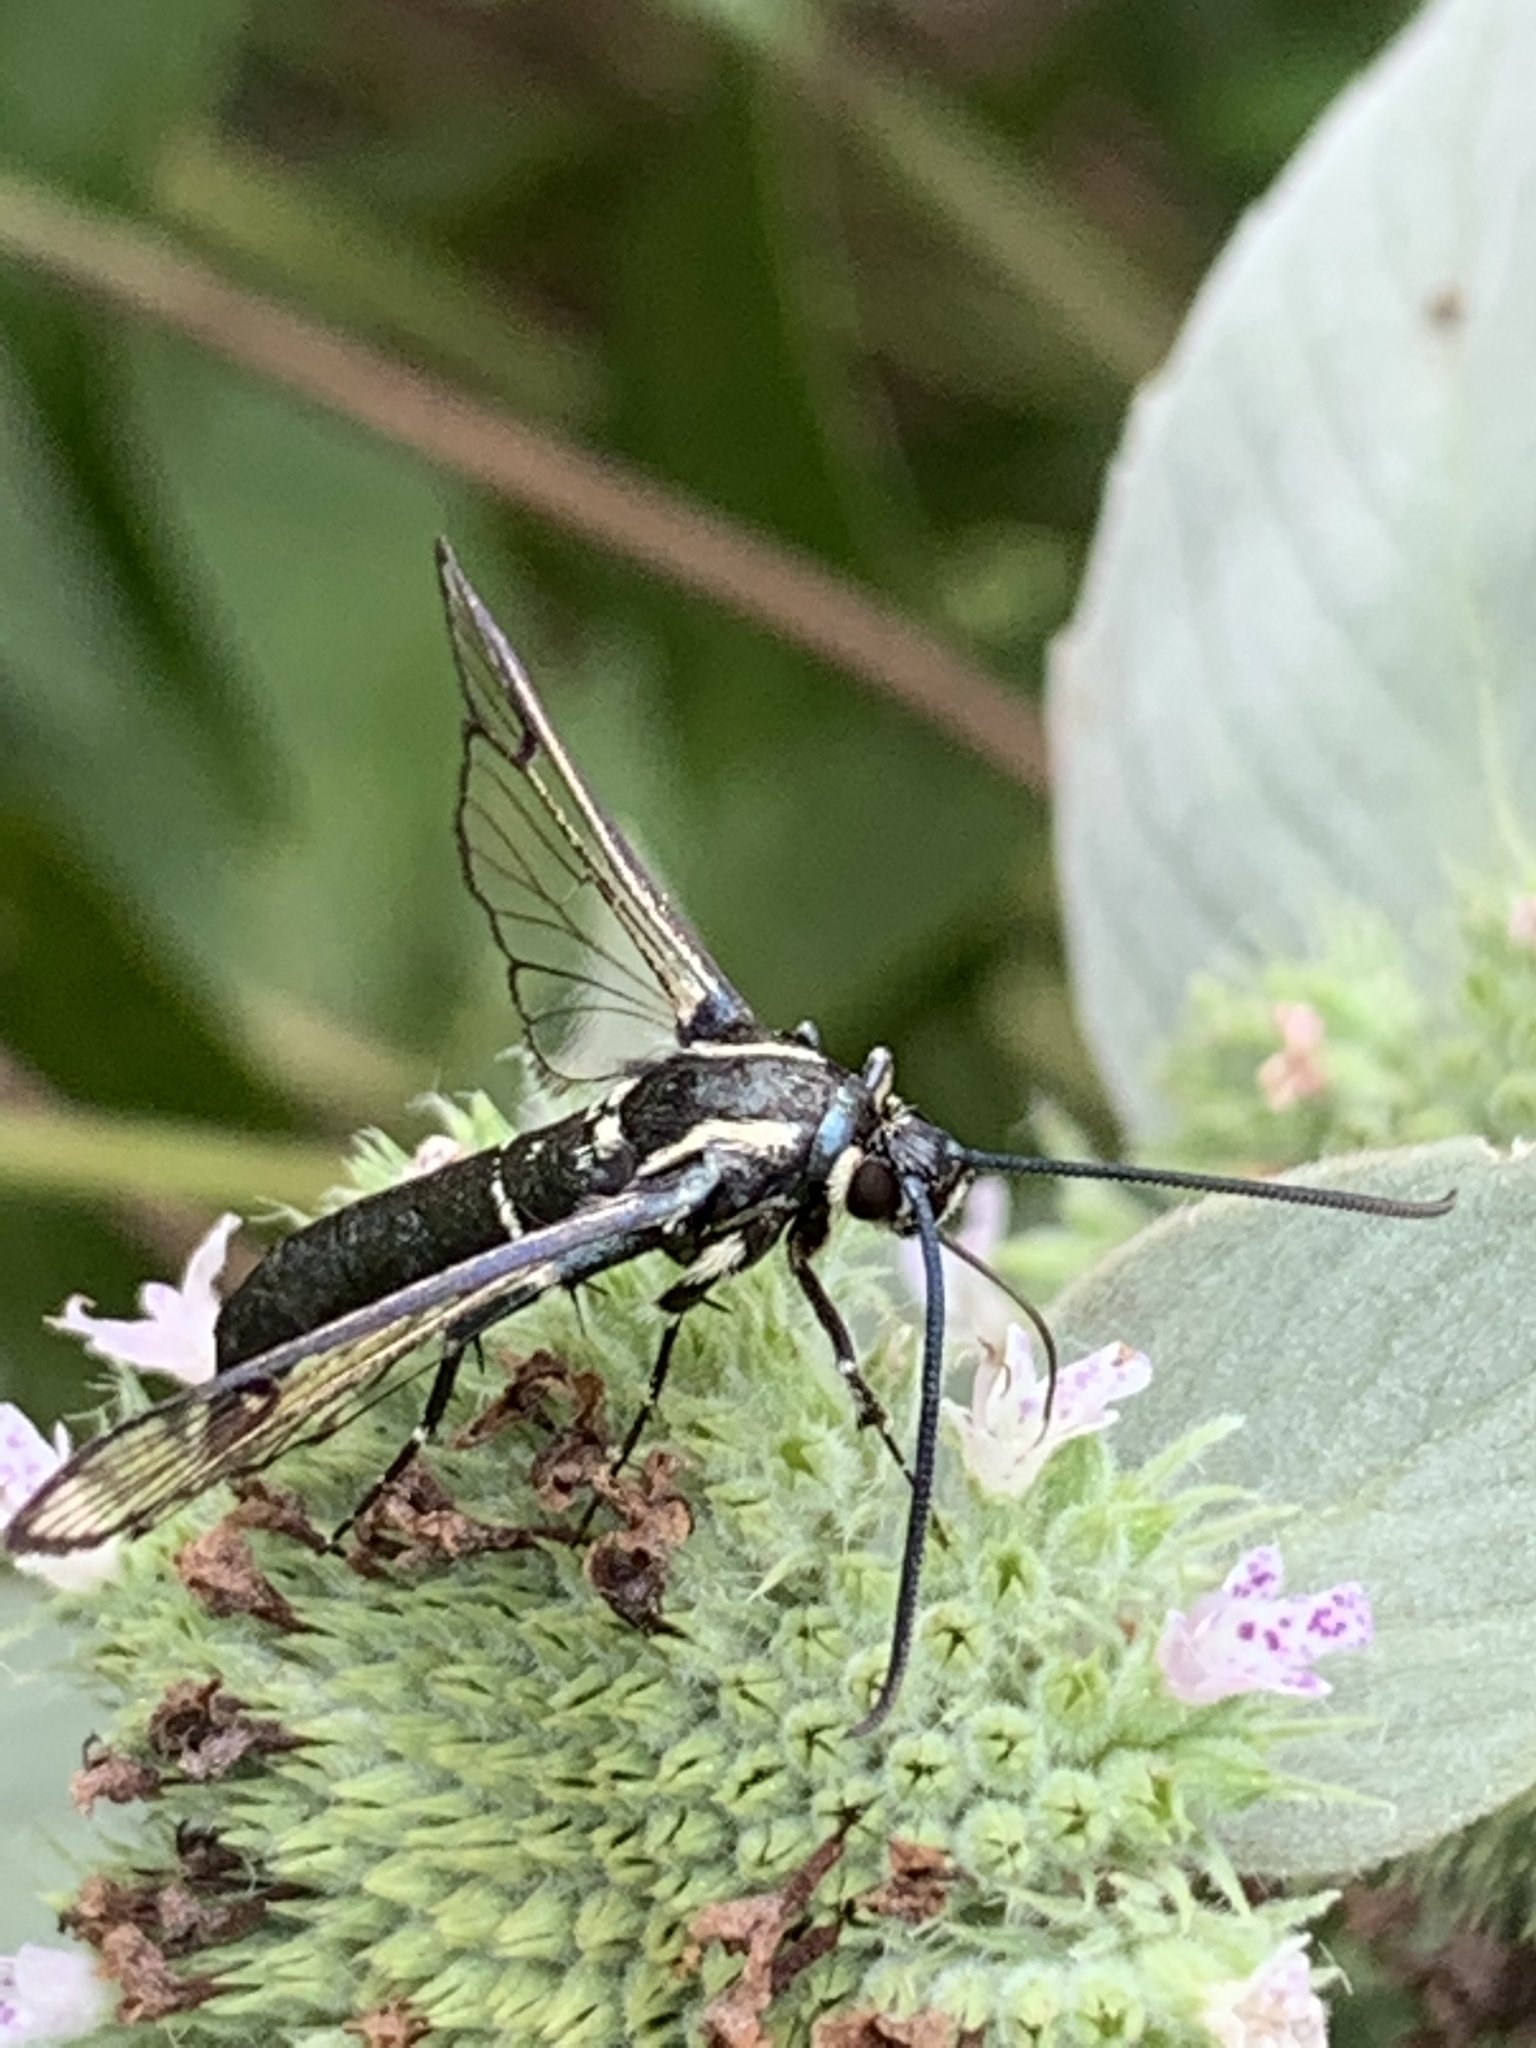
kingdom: Animalia
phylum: Arthropoda
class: Insecta
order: Lepidoptera
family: Sesiidae
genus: Synanthedon
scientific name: Synanthedon pictipes
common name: Lesser peachtree borer moth
